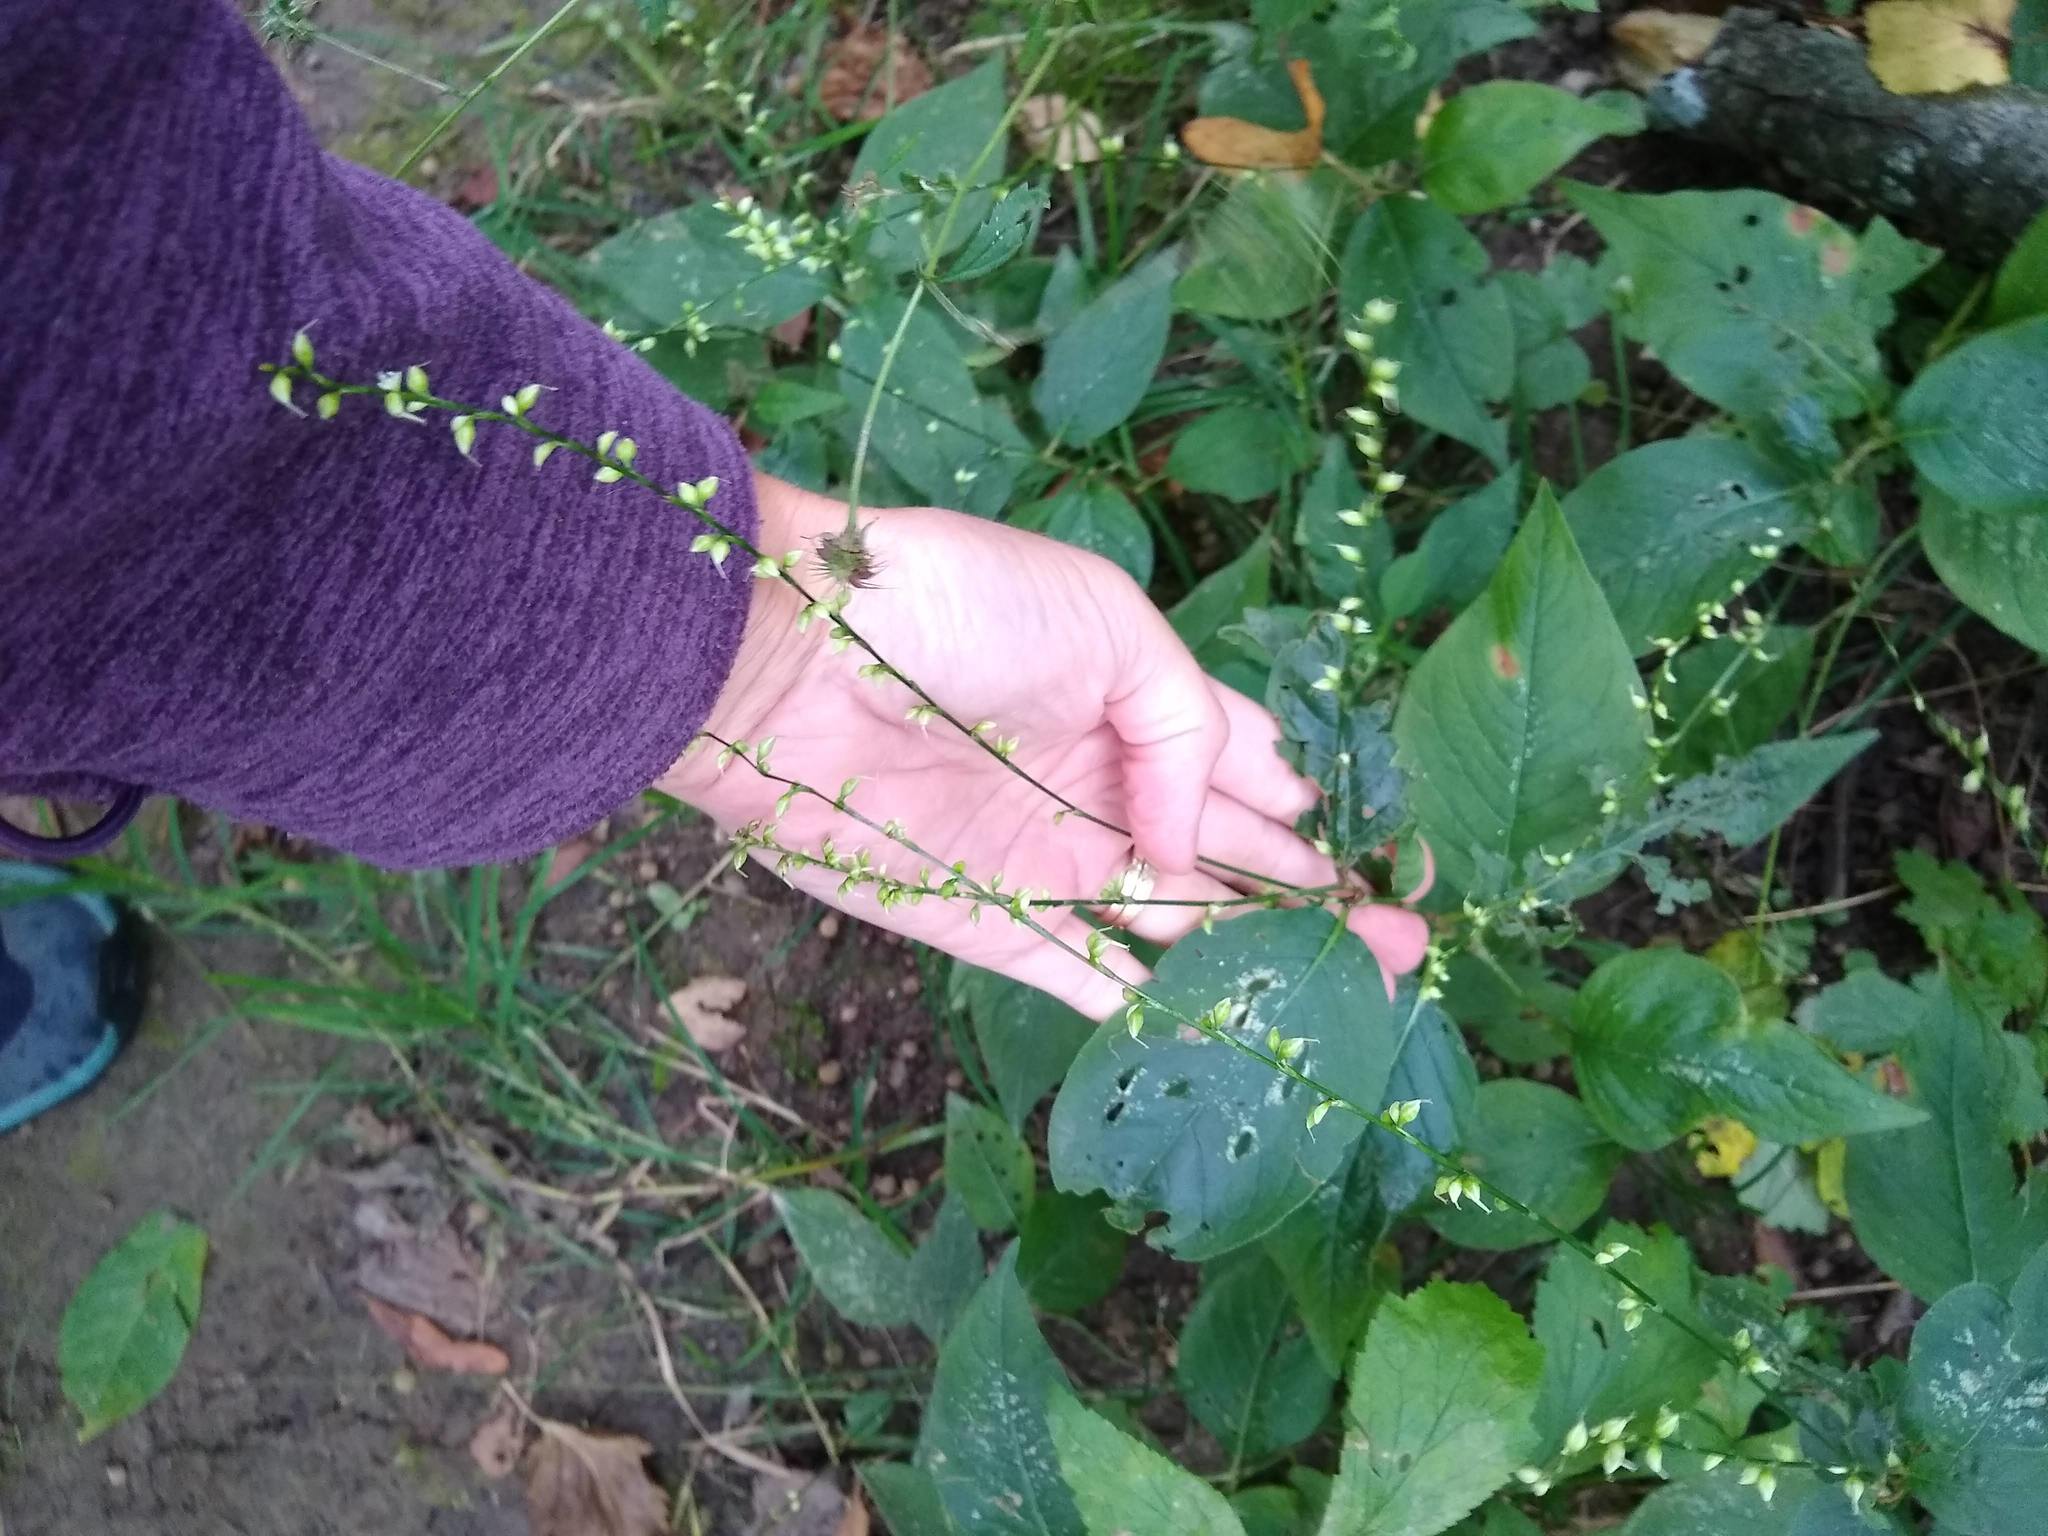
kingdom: Plantae
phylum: Tracheophyta
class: Magnoliopsida
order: Caryophyllales
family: Polygonaceae
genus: Persicaria
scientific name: Persicaria virginiana
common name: Jumpseed
